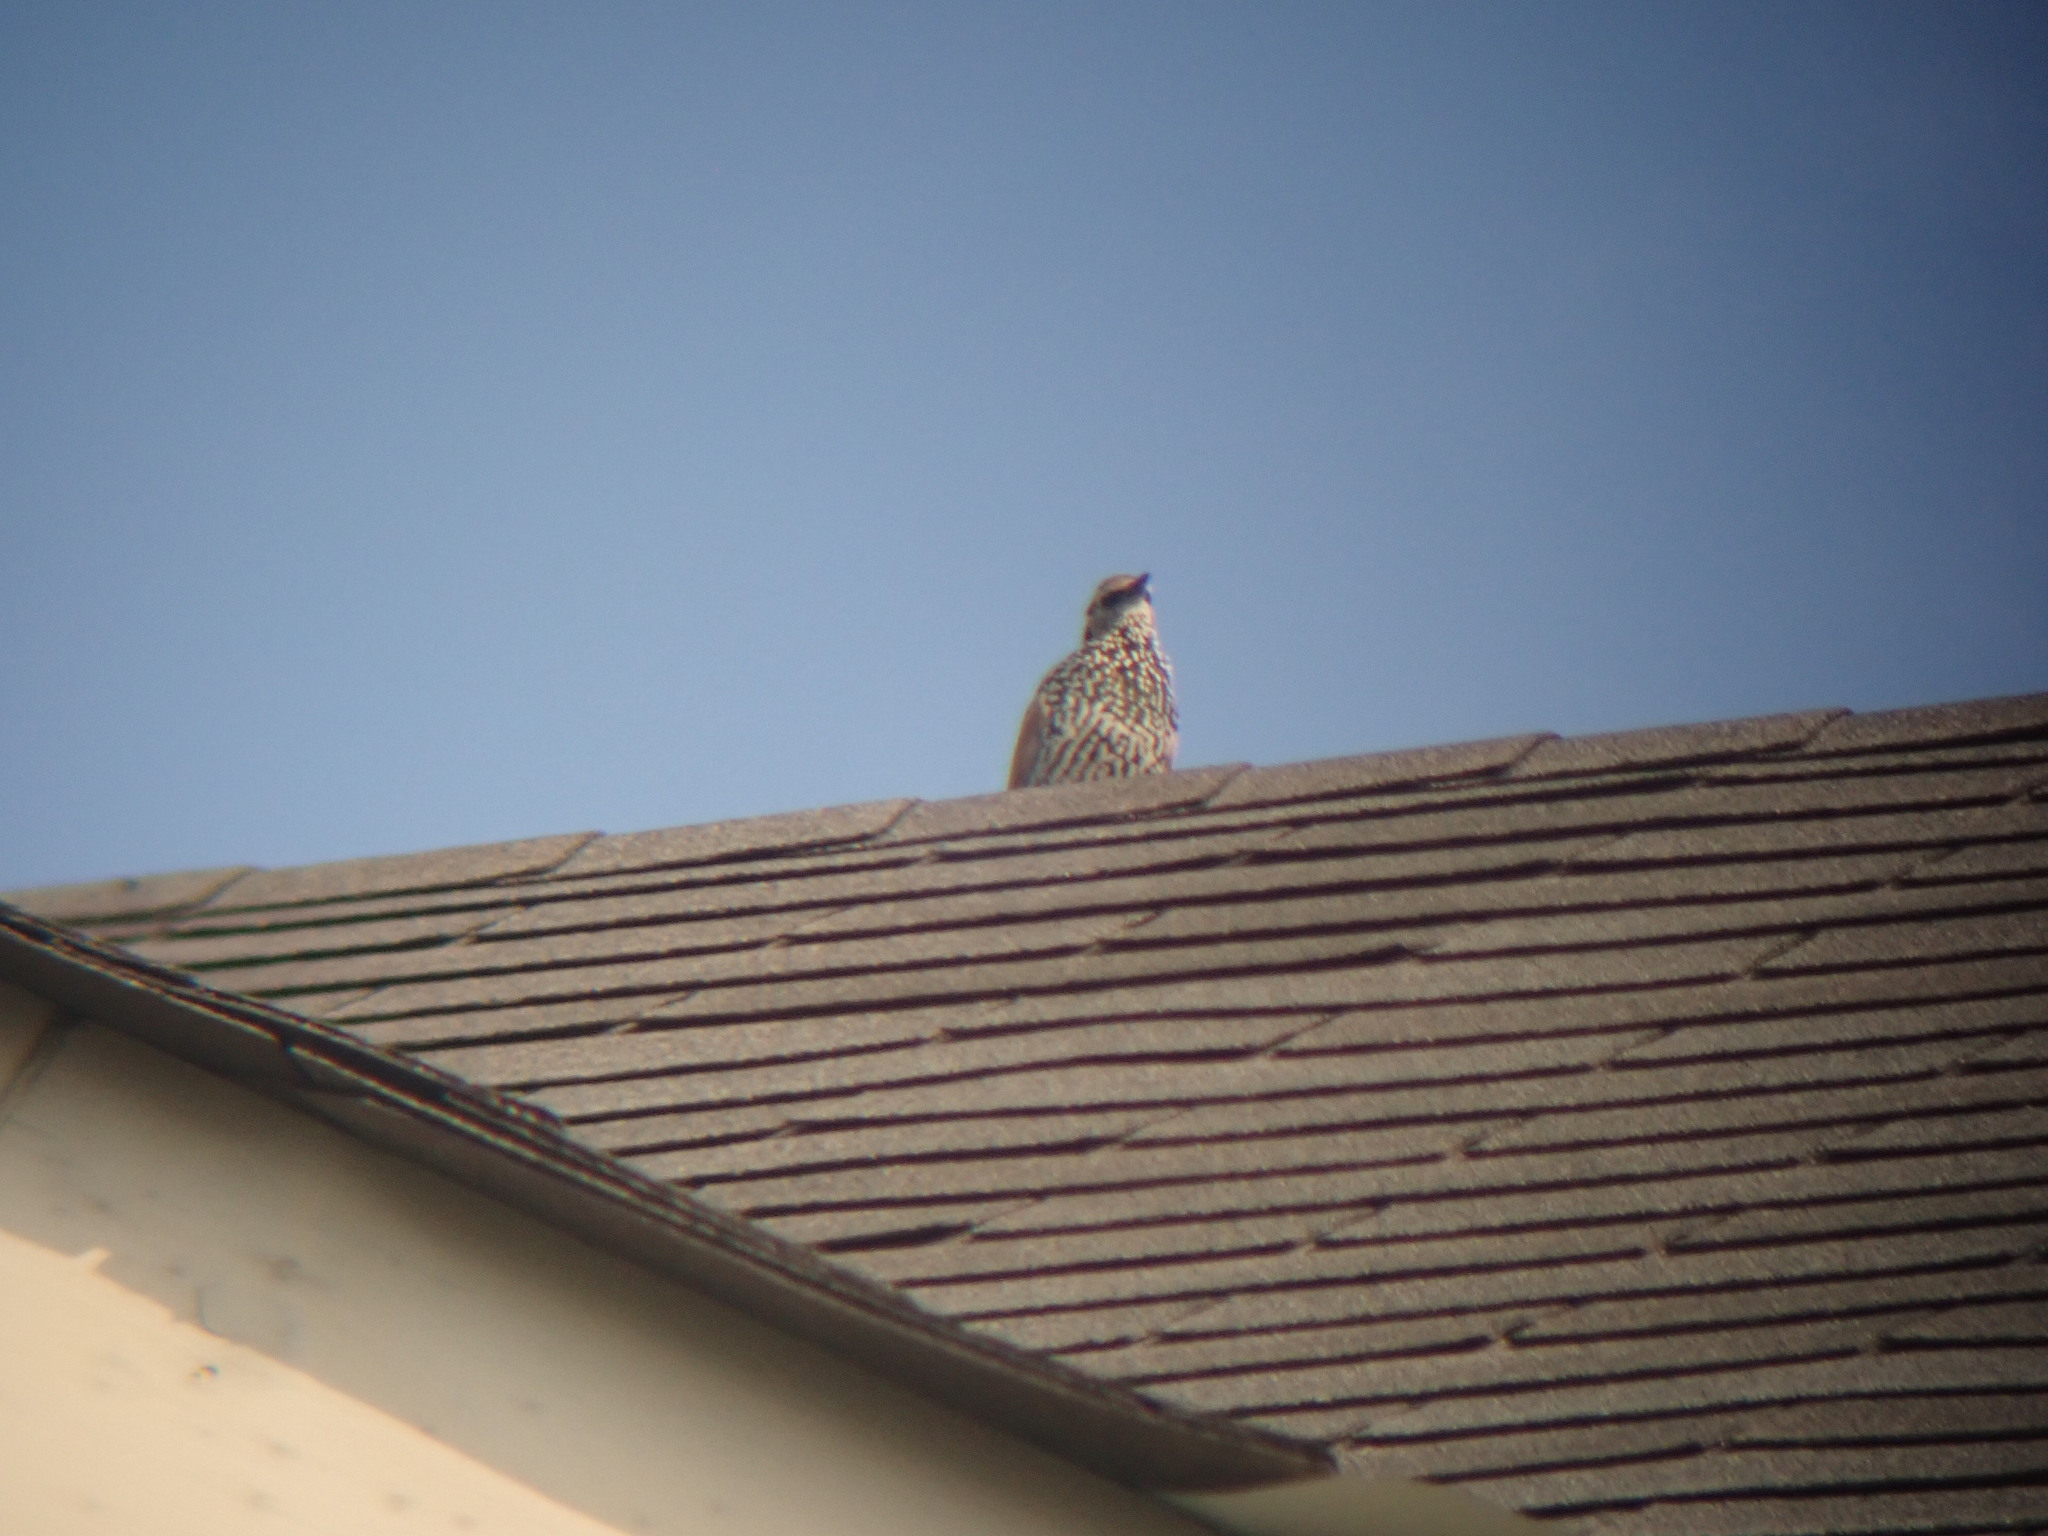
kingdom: Animalia
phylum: Chordata
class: Aves
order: Passeriformes
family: Sturnidae
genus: Sturnus
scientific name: Sturnus vulgaris
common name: Common starling
